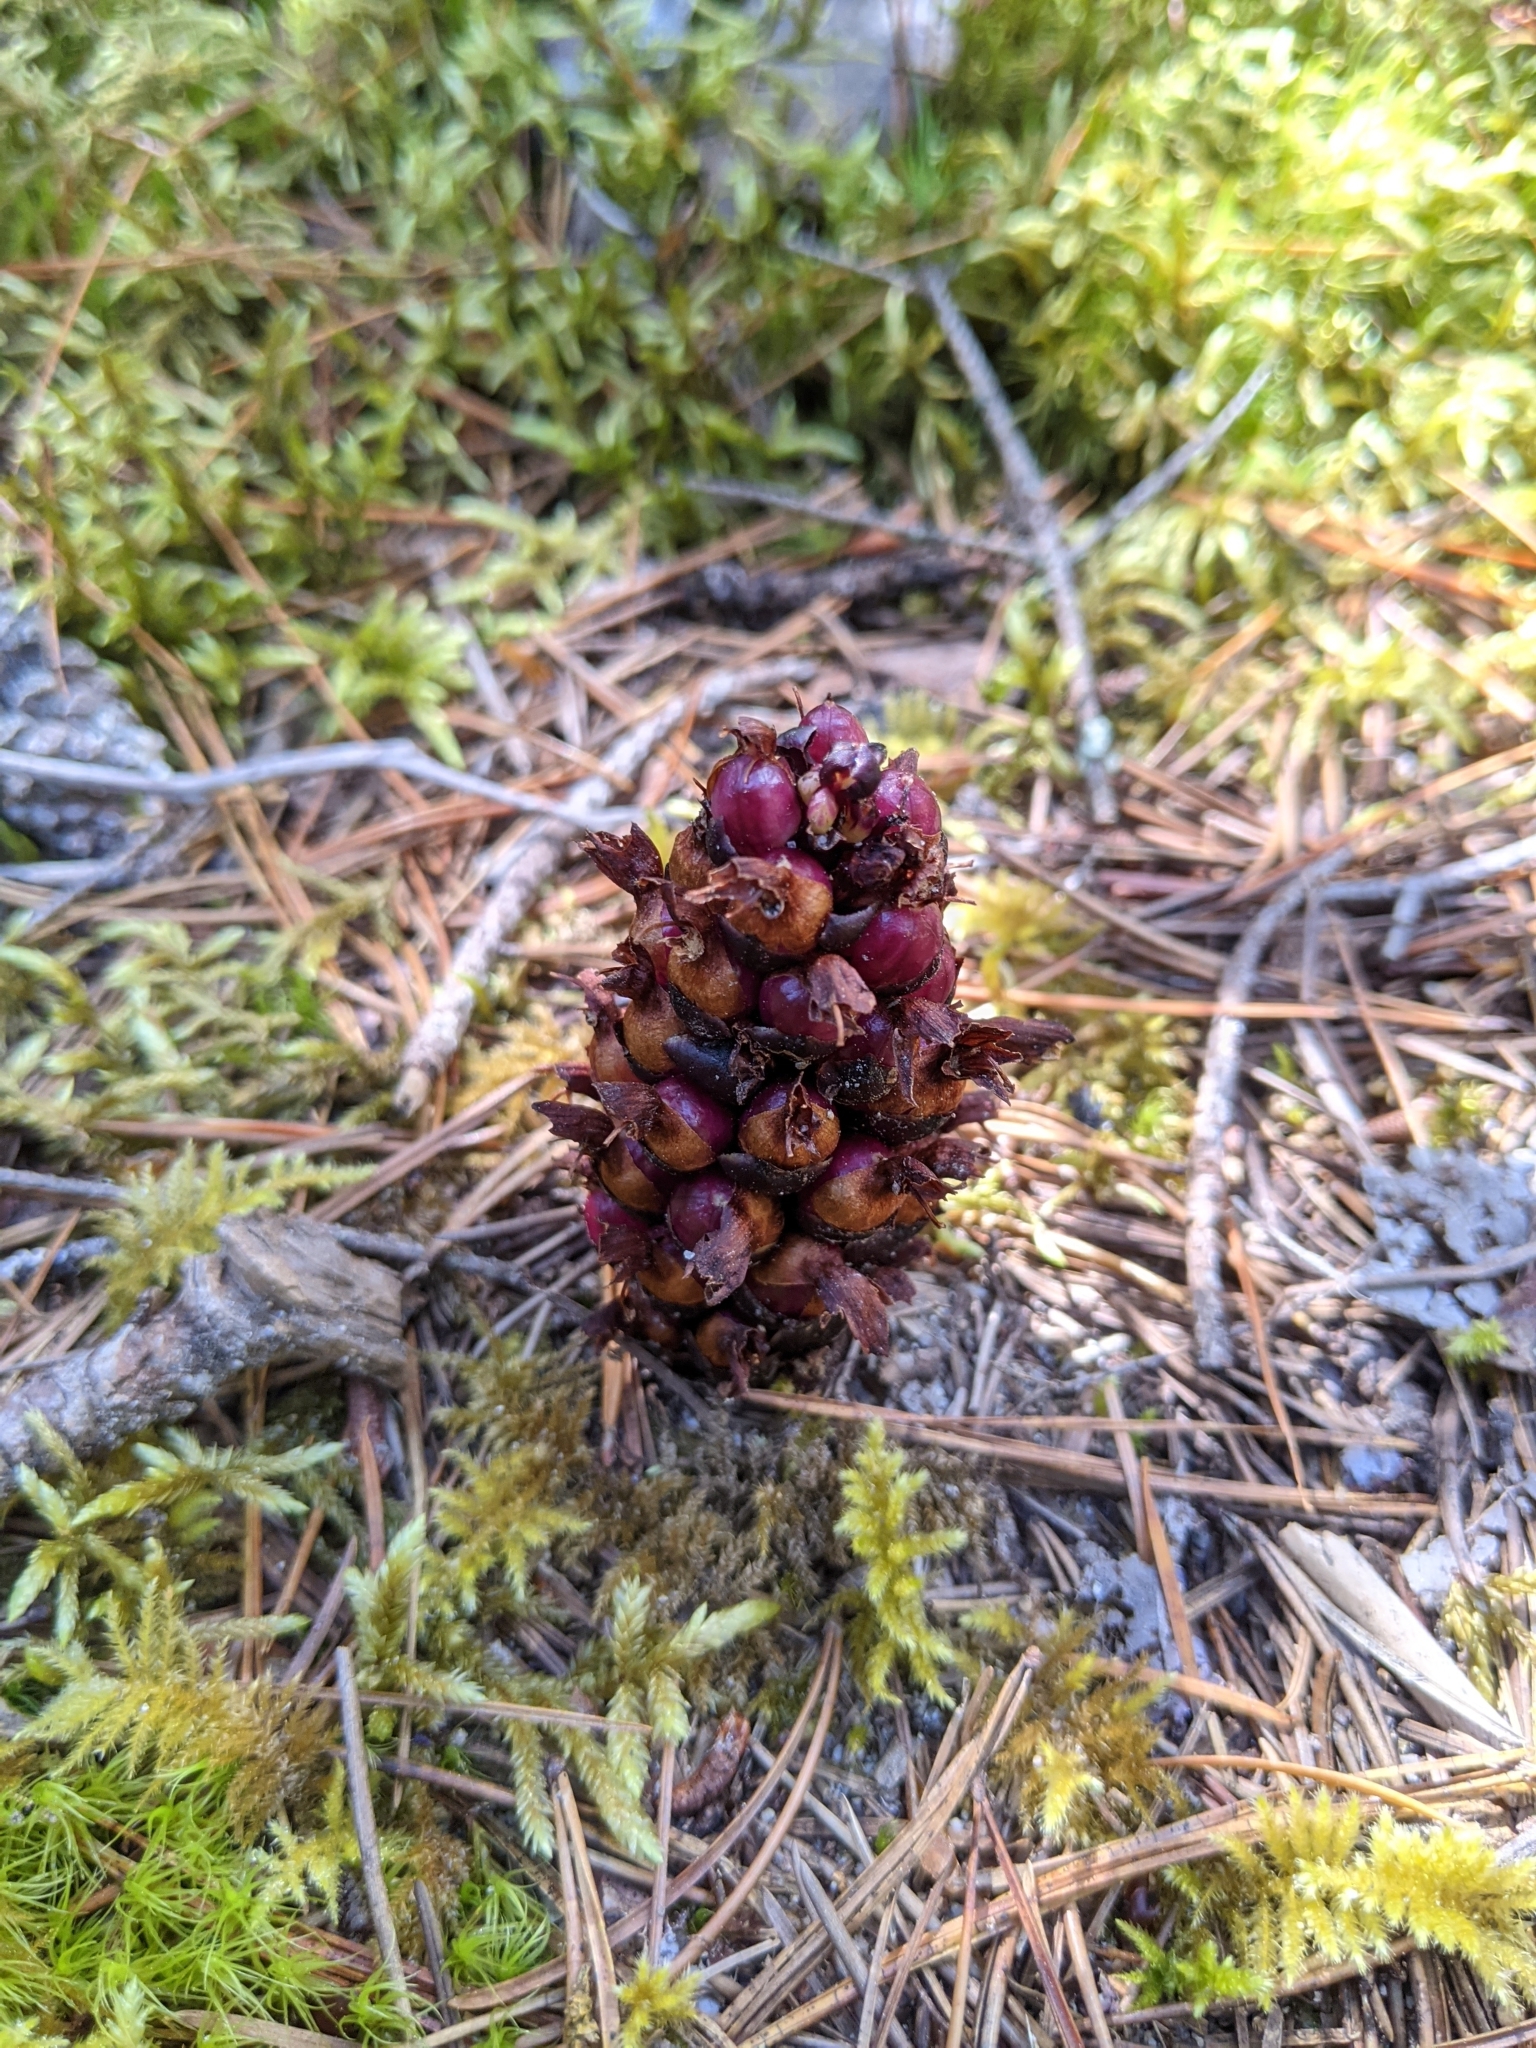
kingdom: Plantae
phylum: Tracheophyta
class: Magnoliopsida
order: Lamiales
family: Orobanchaceae
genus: Kopsiopsis
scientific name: Kopsiopsis hookeri
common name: Hooker's groundcone
